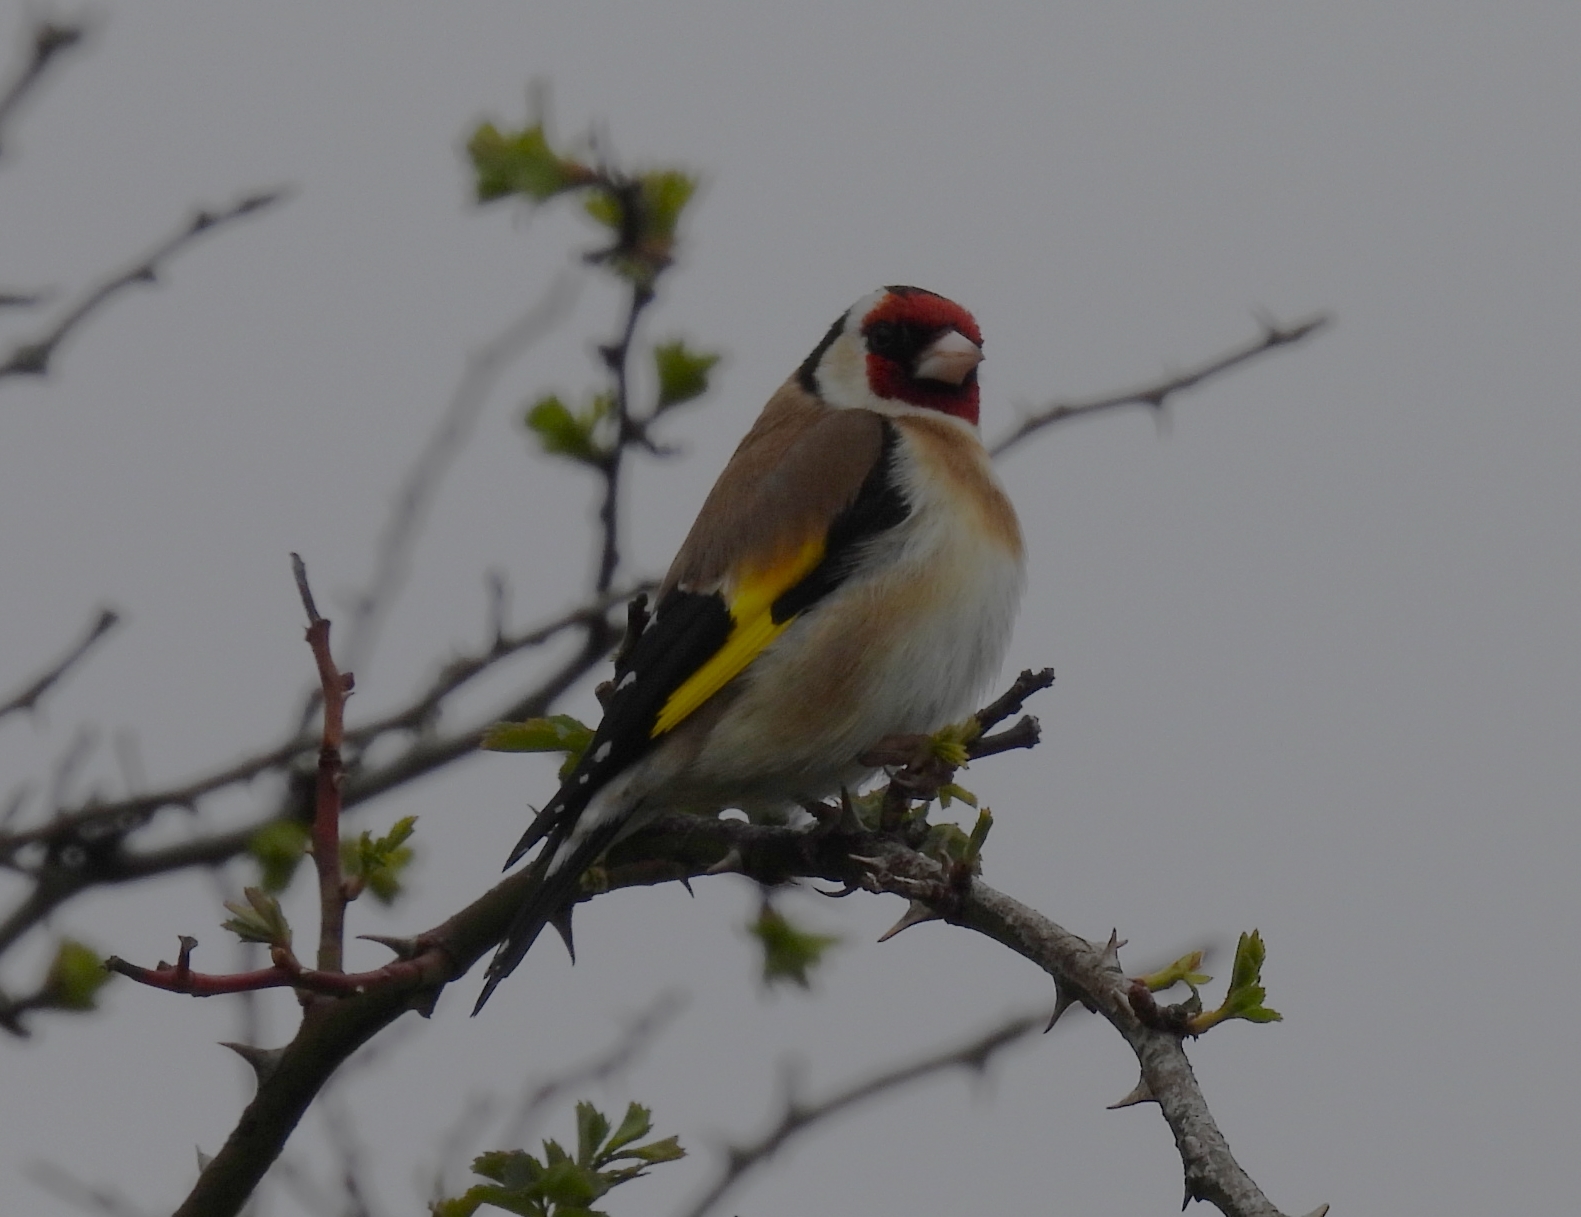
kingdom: Animalia
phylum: Chordata
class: Aves
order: Passeriformes
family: Fringillidae
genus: Carduelis
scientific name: Carduelis carduelis
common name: European goldfinch
